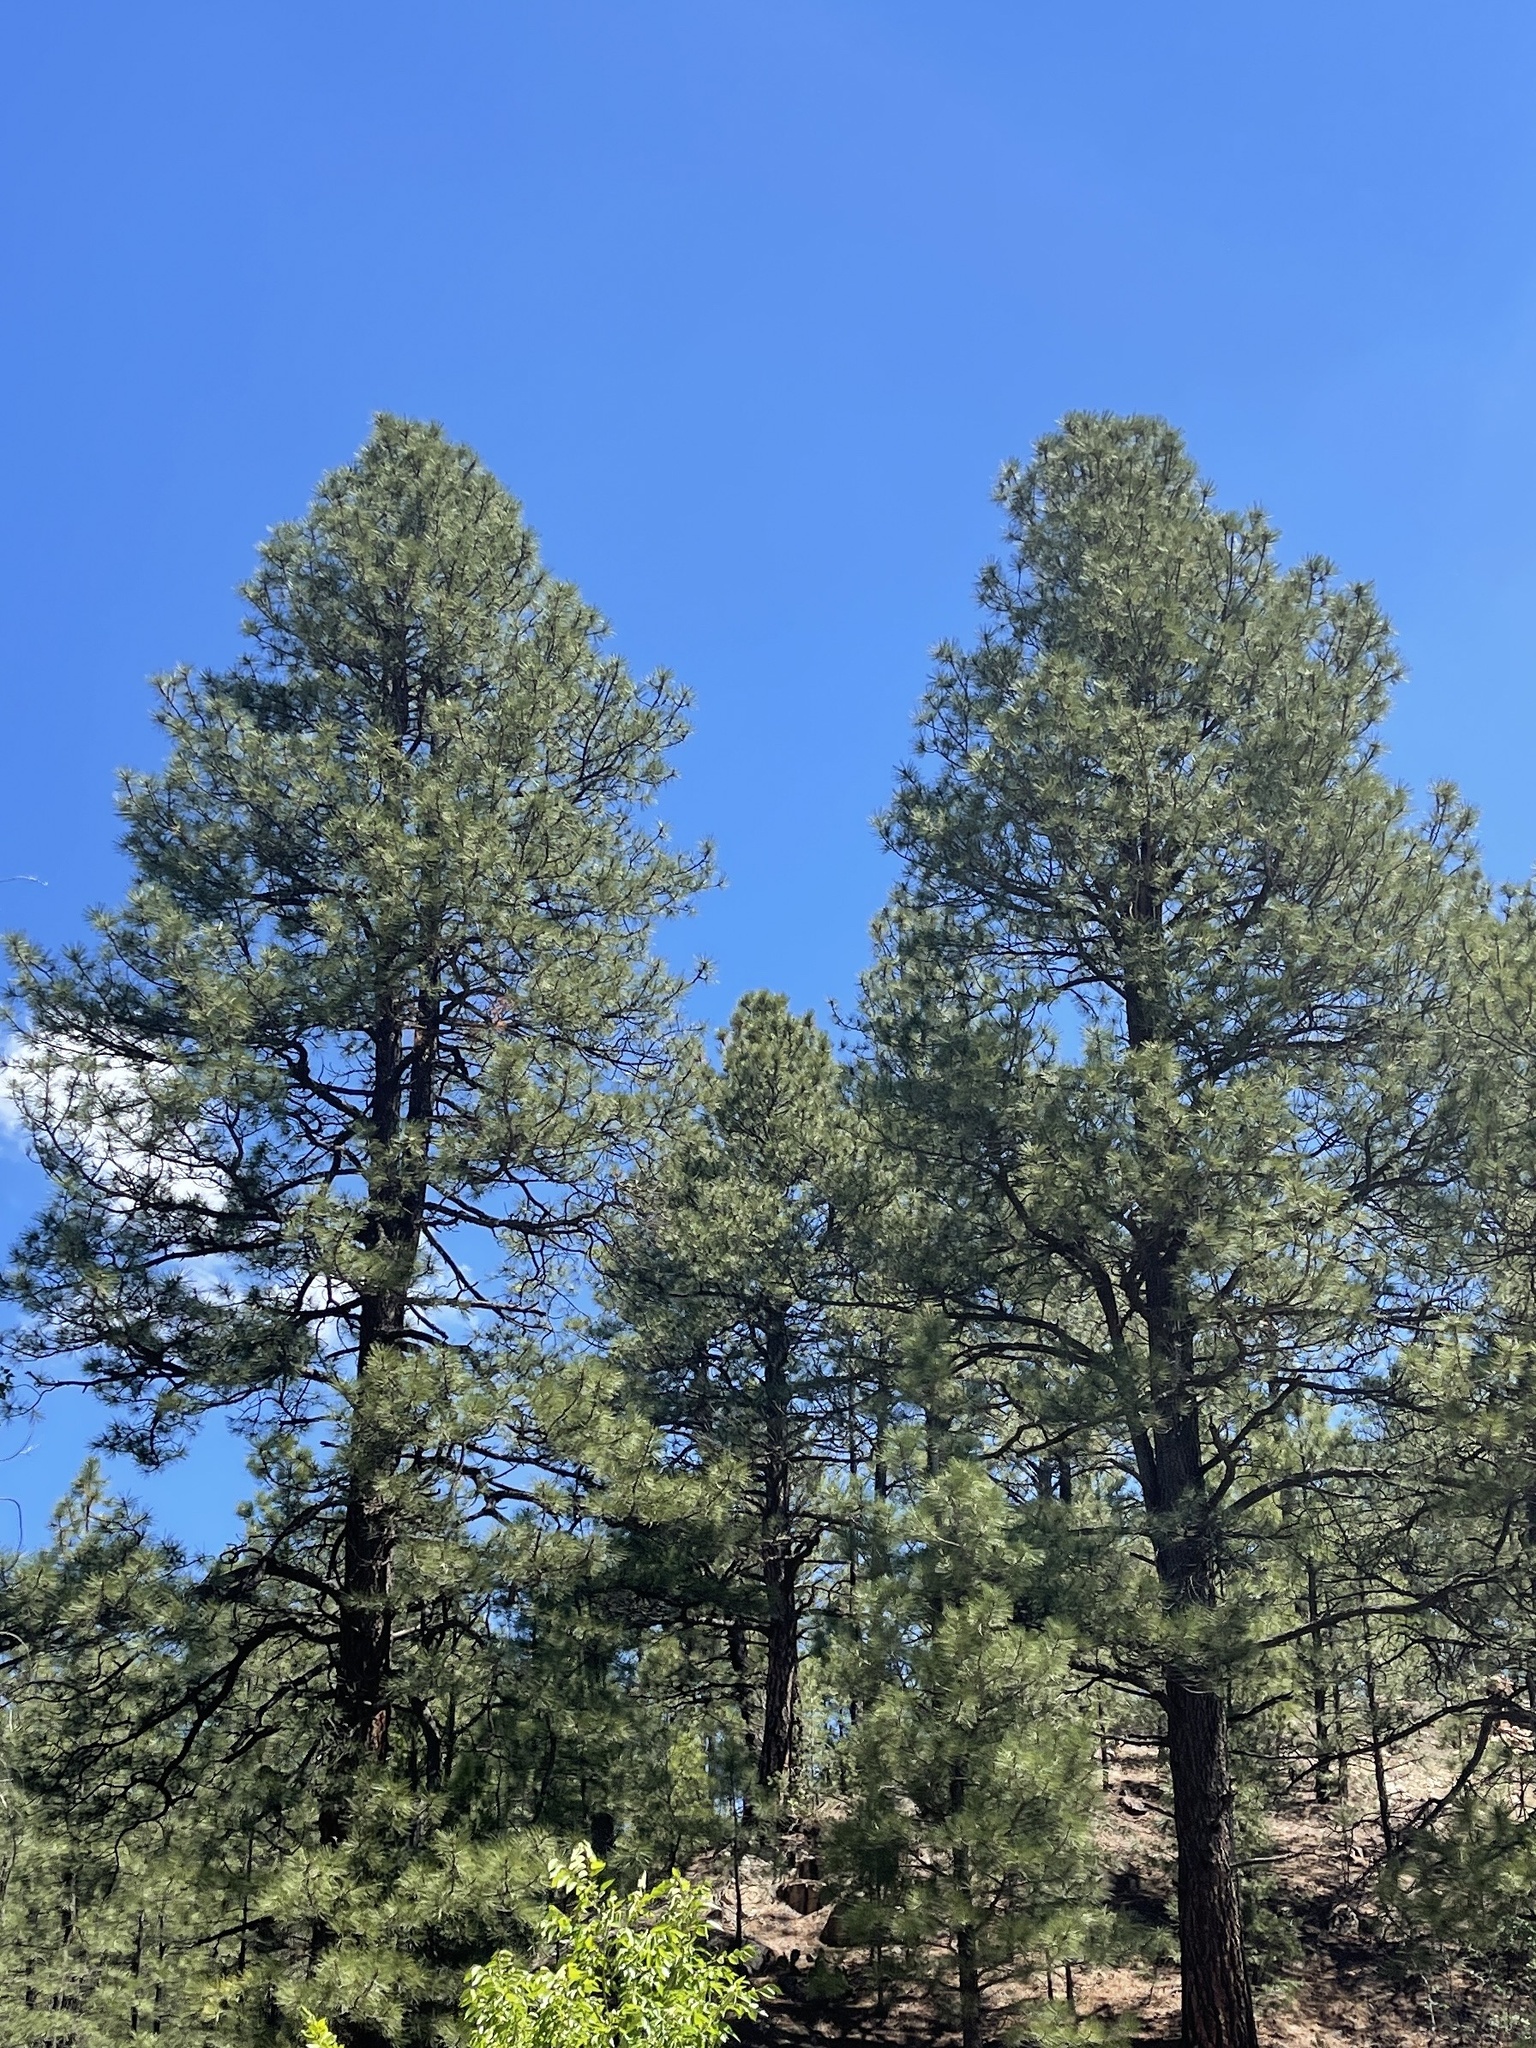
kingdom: Plantae
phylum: Tracheophyta
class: Pinopsida
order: Pinales
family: Pinaceae
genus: Pinus
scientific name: Pinus ponderosa
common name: Western yellow-pine
